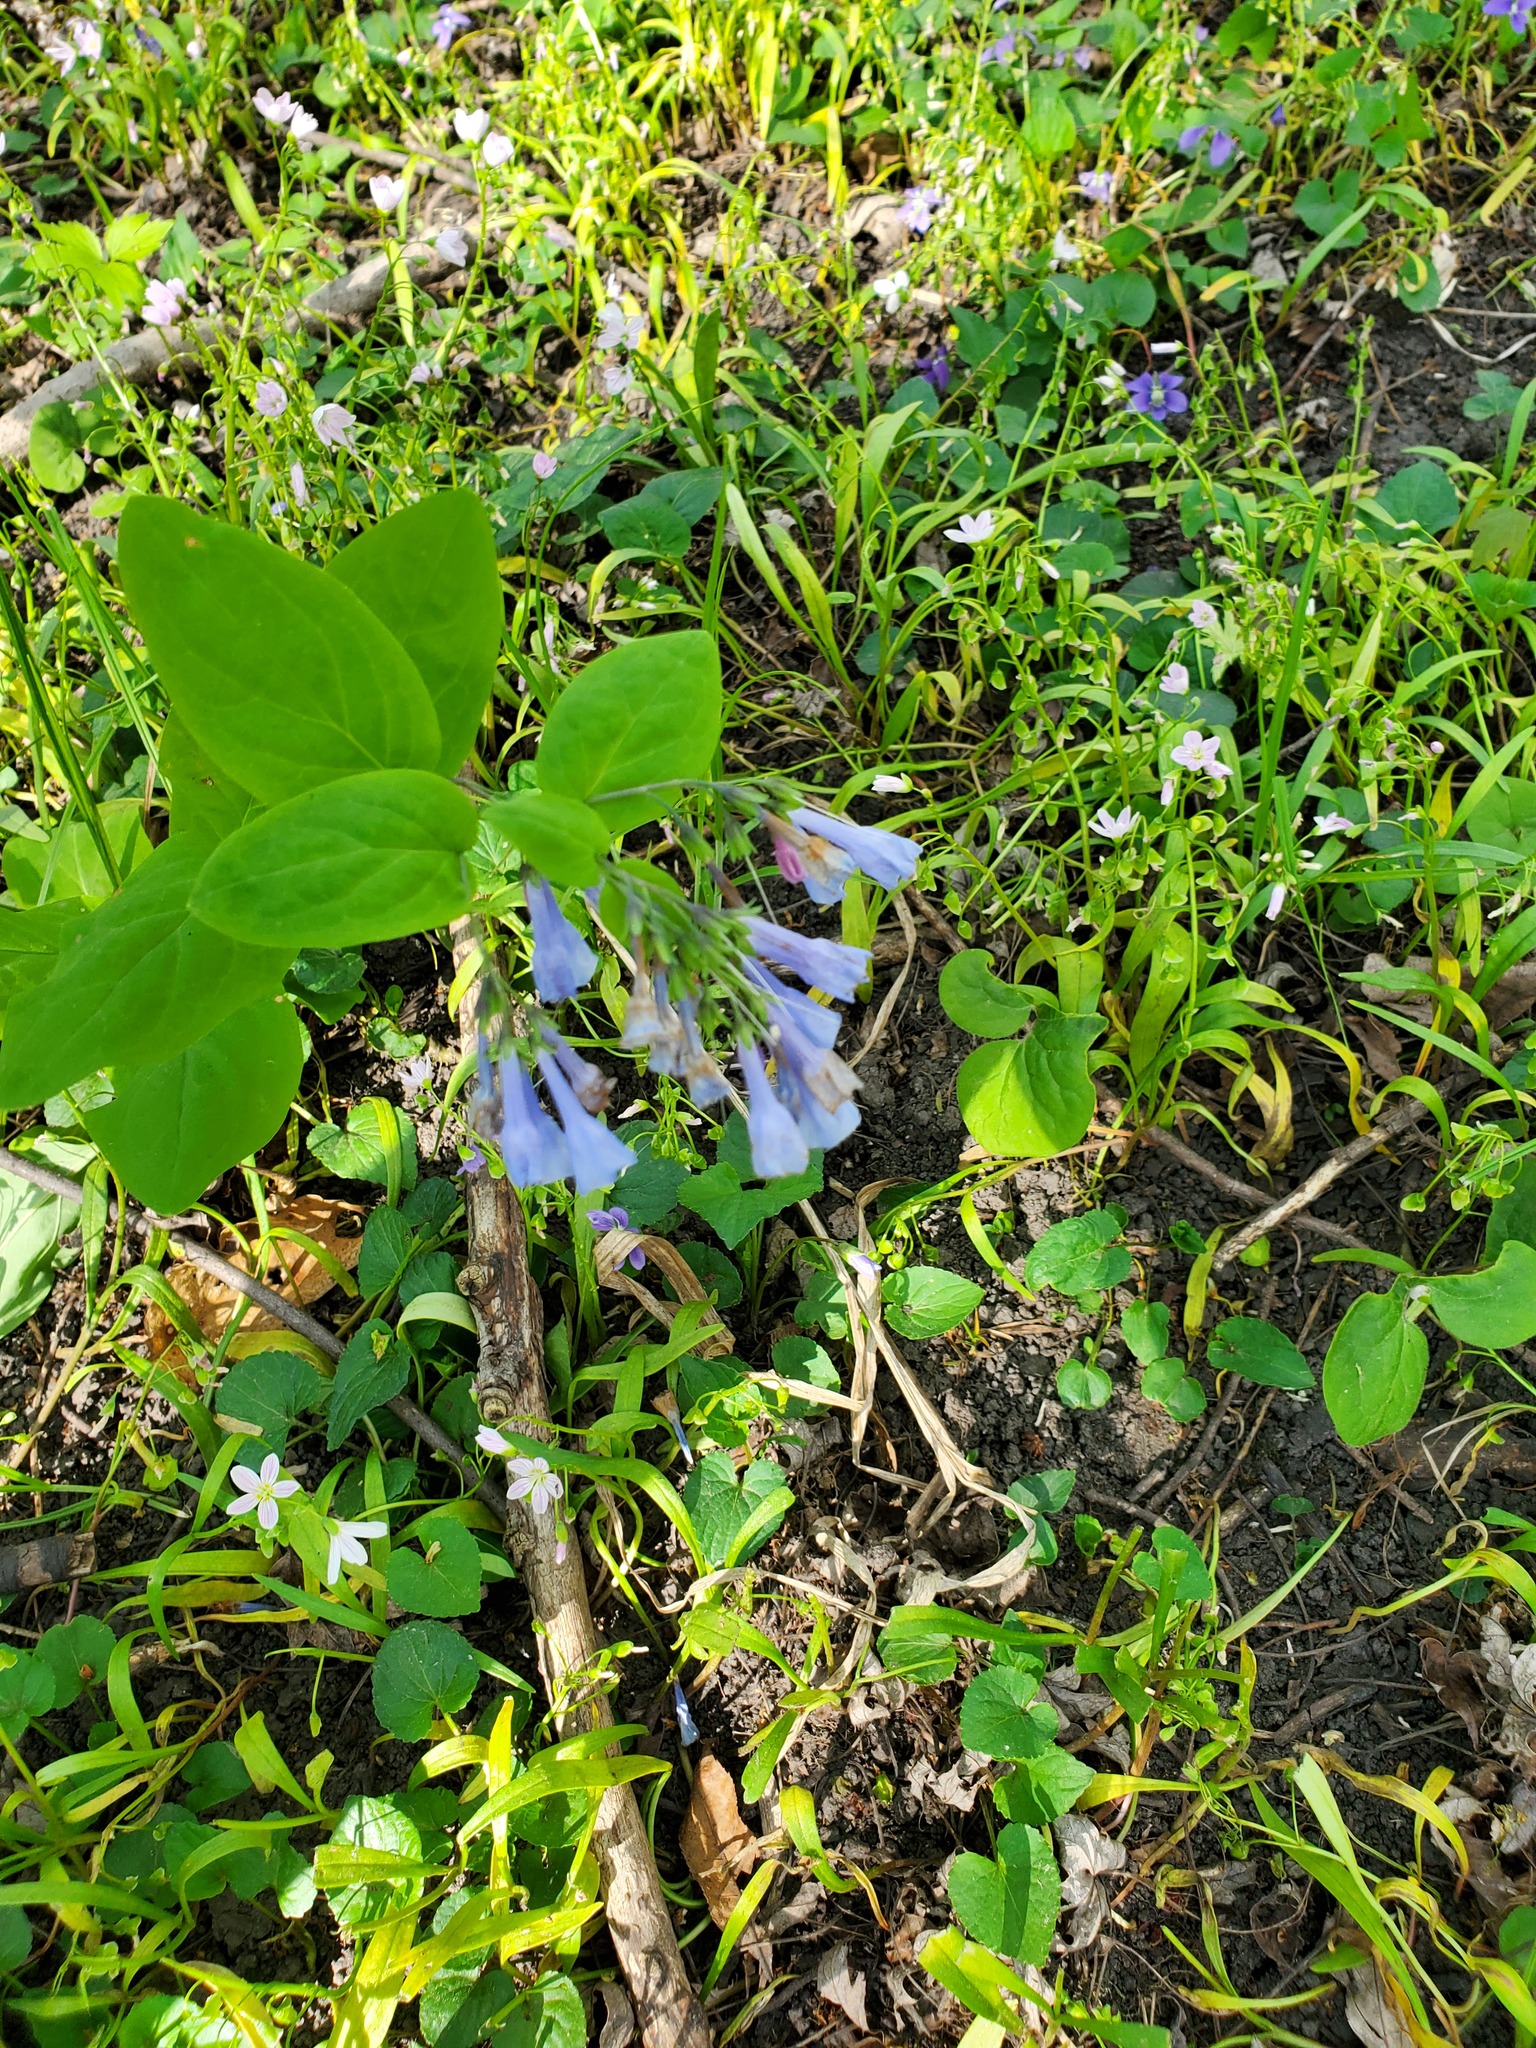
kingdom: Plantae
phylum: Tracheophyta
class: Magnoliopsida
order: Boraginales
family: Boraginaceae
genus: Mertensia
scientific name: Mertensia virginica
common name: Virginia bluebells
